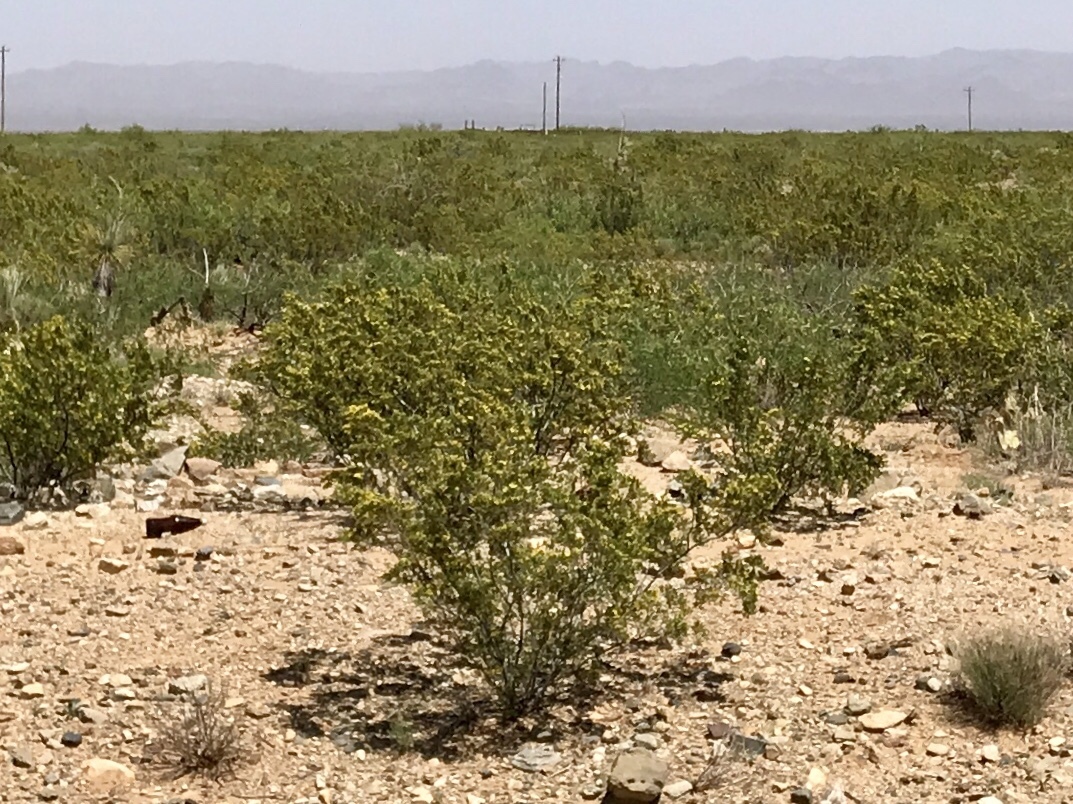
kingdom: Plantae
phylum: Tracheophyta
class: Magnoliopsida
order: Zygophyllales
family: Zygophyllaceae
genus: Larrea
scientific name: Larrea tridentata
